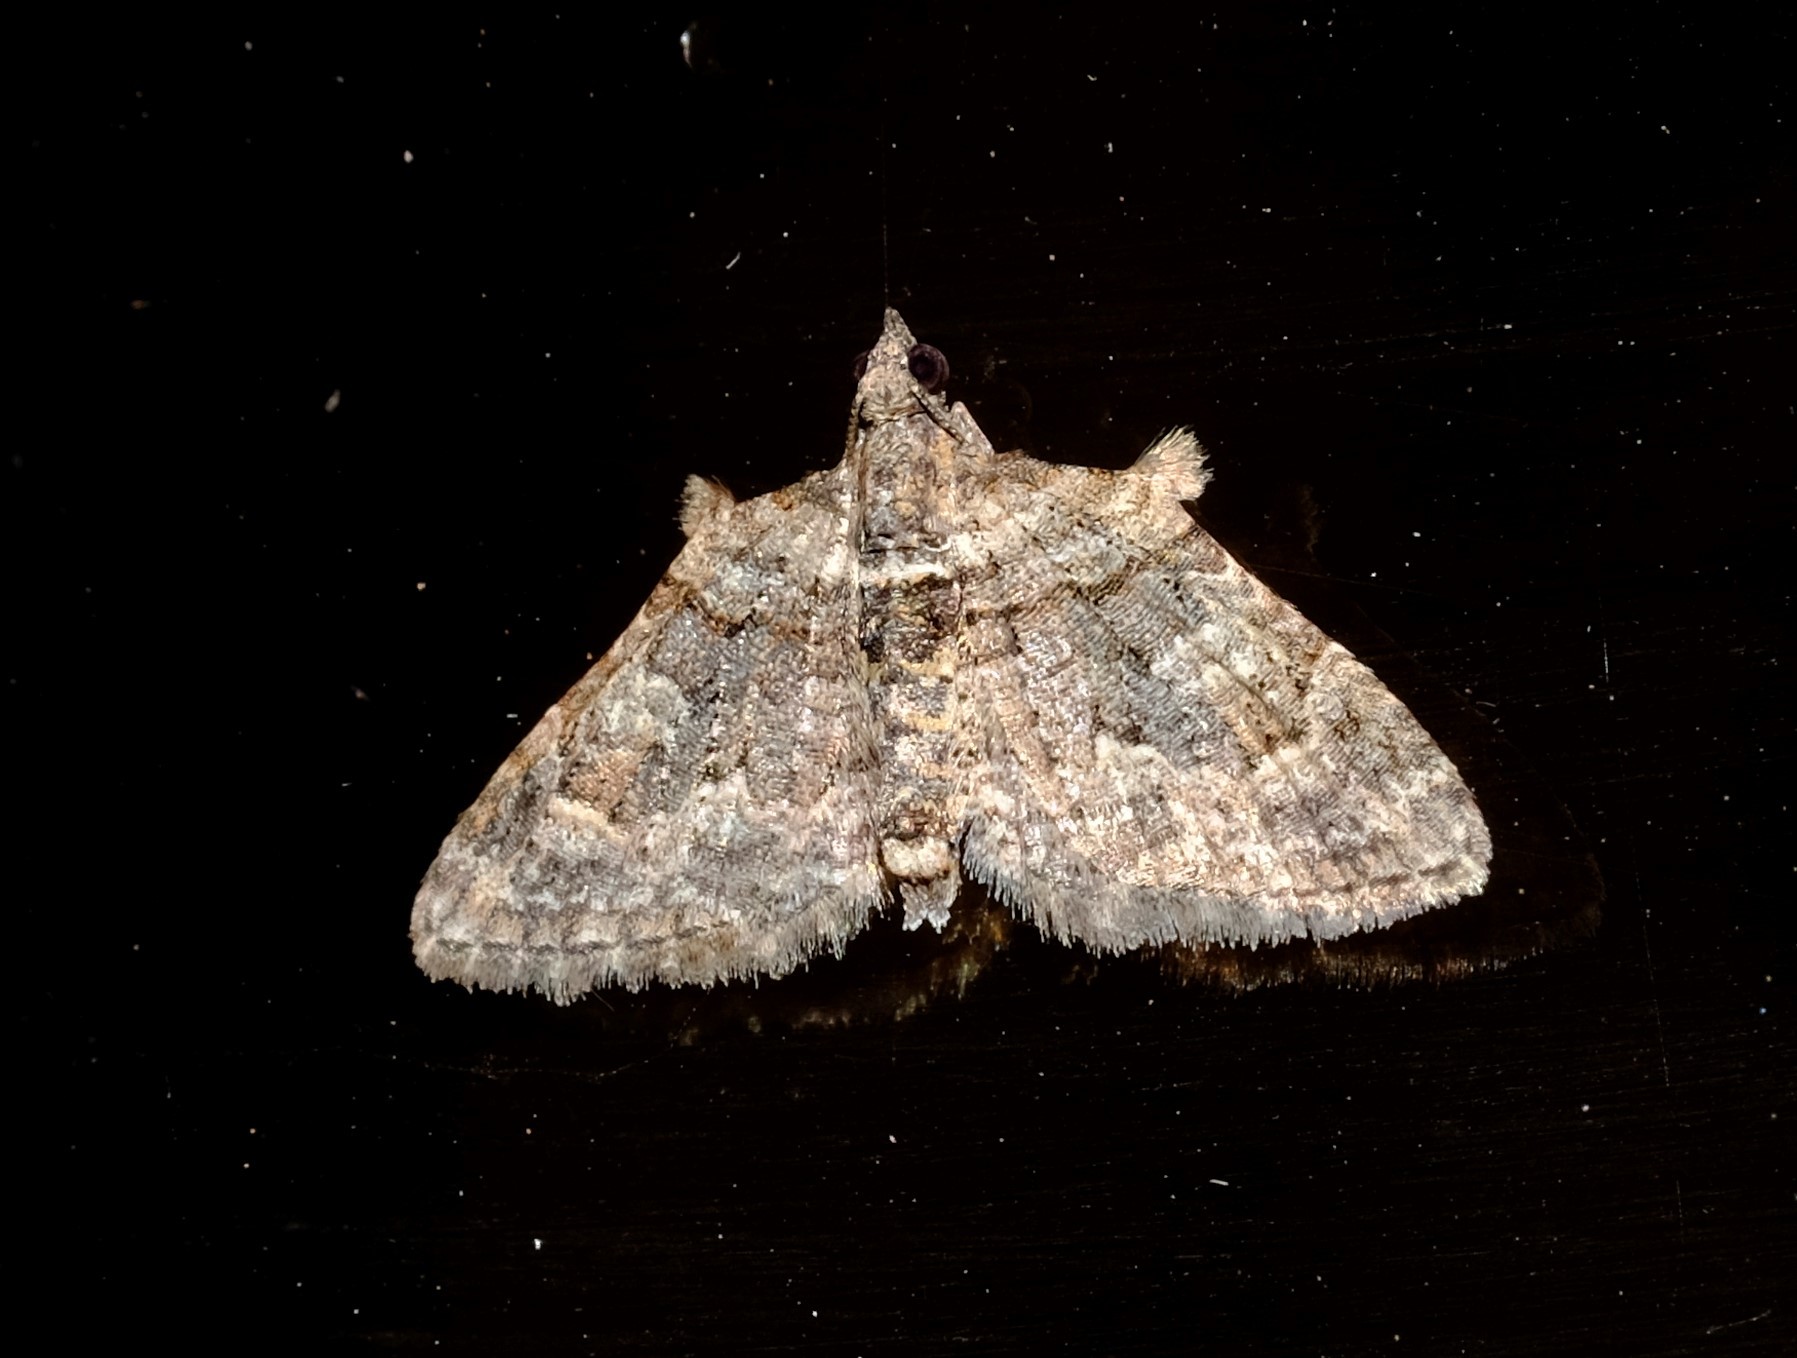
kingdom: Animalia
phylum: Arthropoda
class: Insecta
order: Lepidoptera
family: Geometridae
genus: Phrissogonus
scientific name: Phrissogonus laticostata
